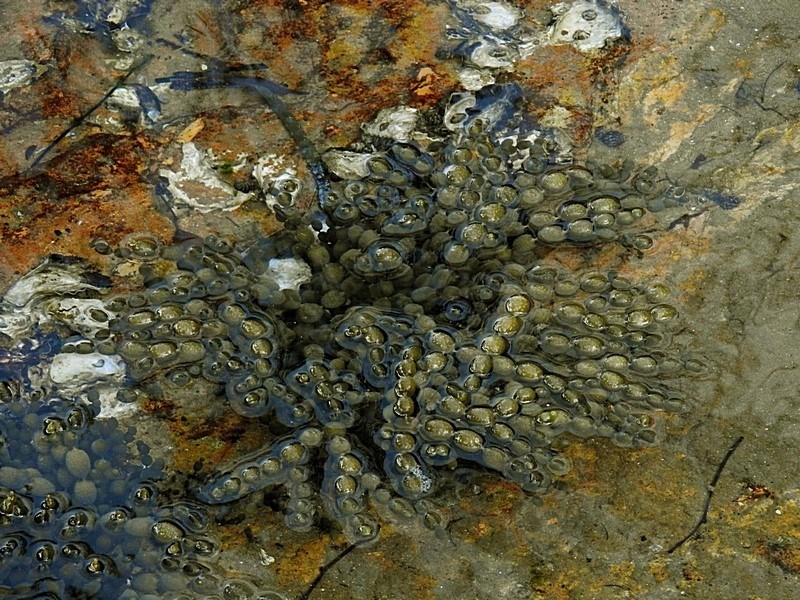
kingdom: Chromista
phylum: Ochrophyta
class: Phaeophyceae
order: Fucales
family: Hormosiraceae
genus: Hormosira
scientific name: Hormosira banksii
